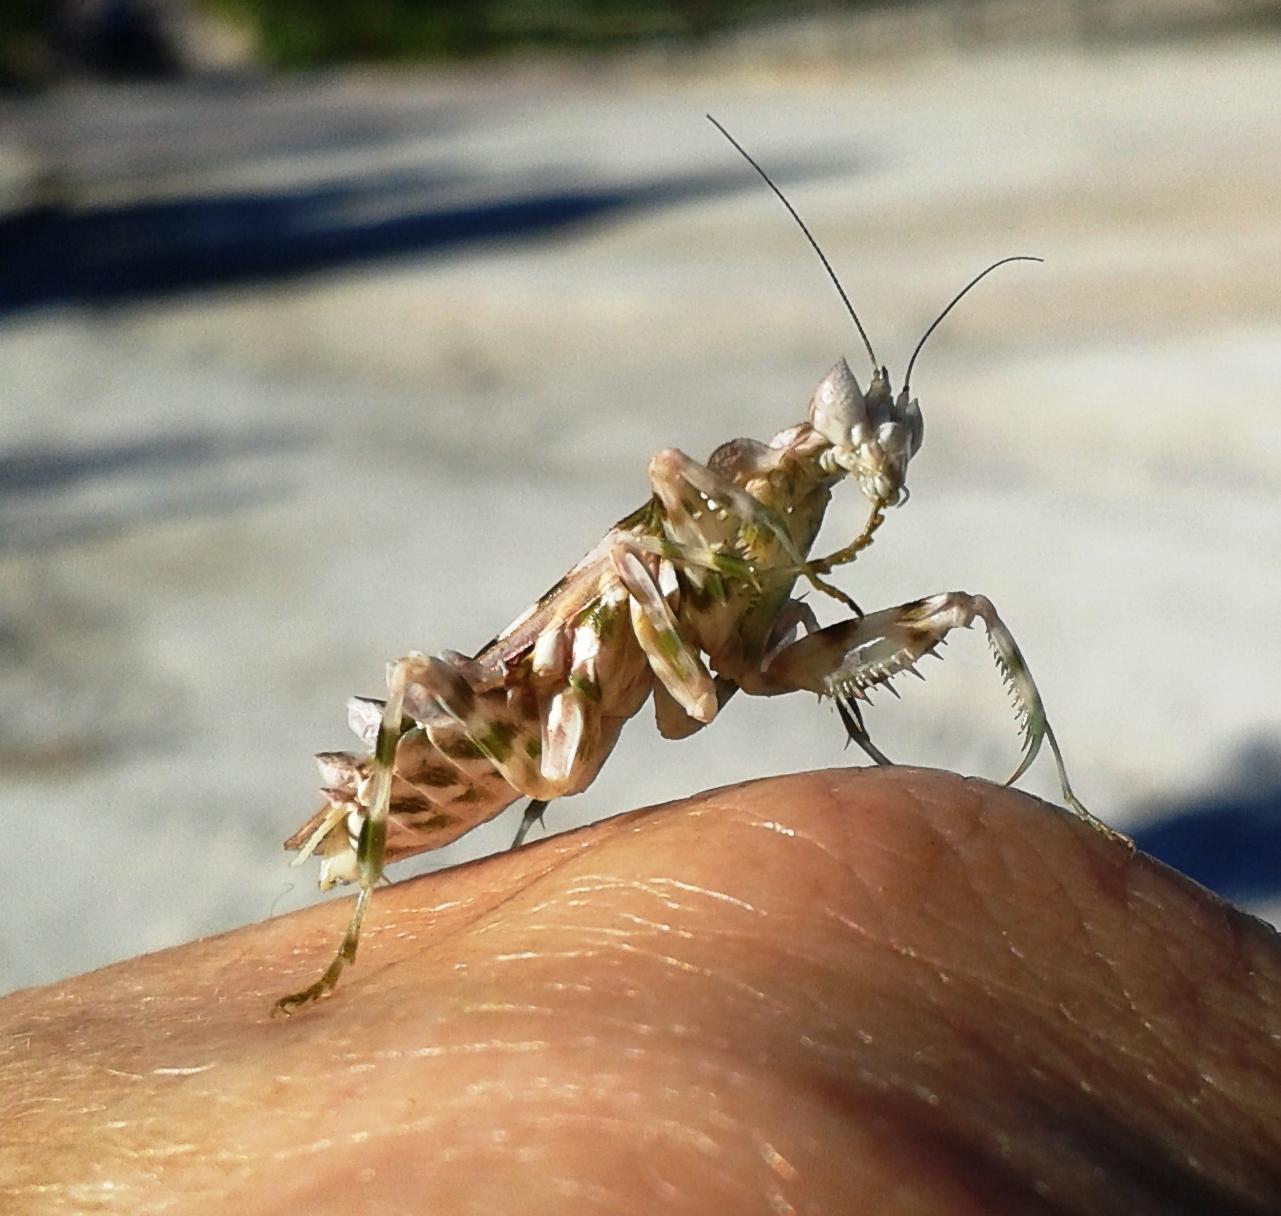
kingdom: Animalia
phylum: Arthropoda
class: Insecta
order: Mantodea
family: Galinthiadidae
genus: Harpagomantis
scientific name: Harpagomantis tricolor
